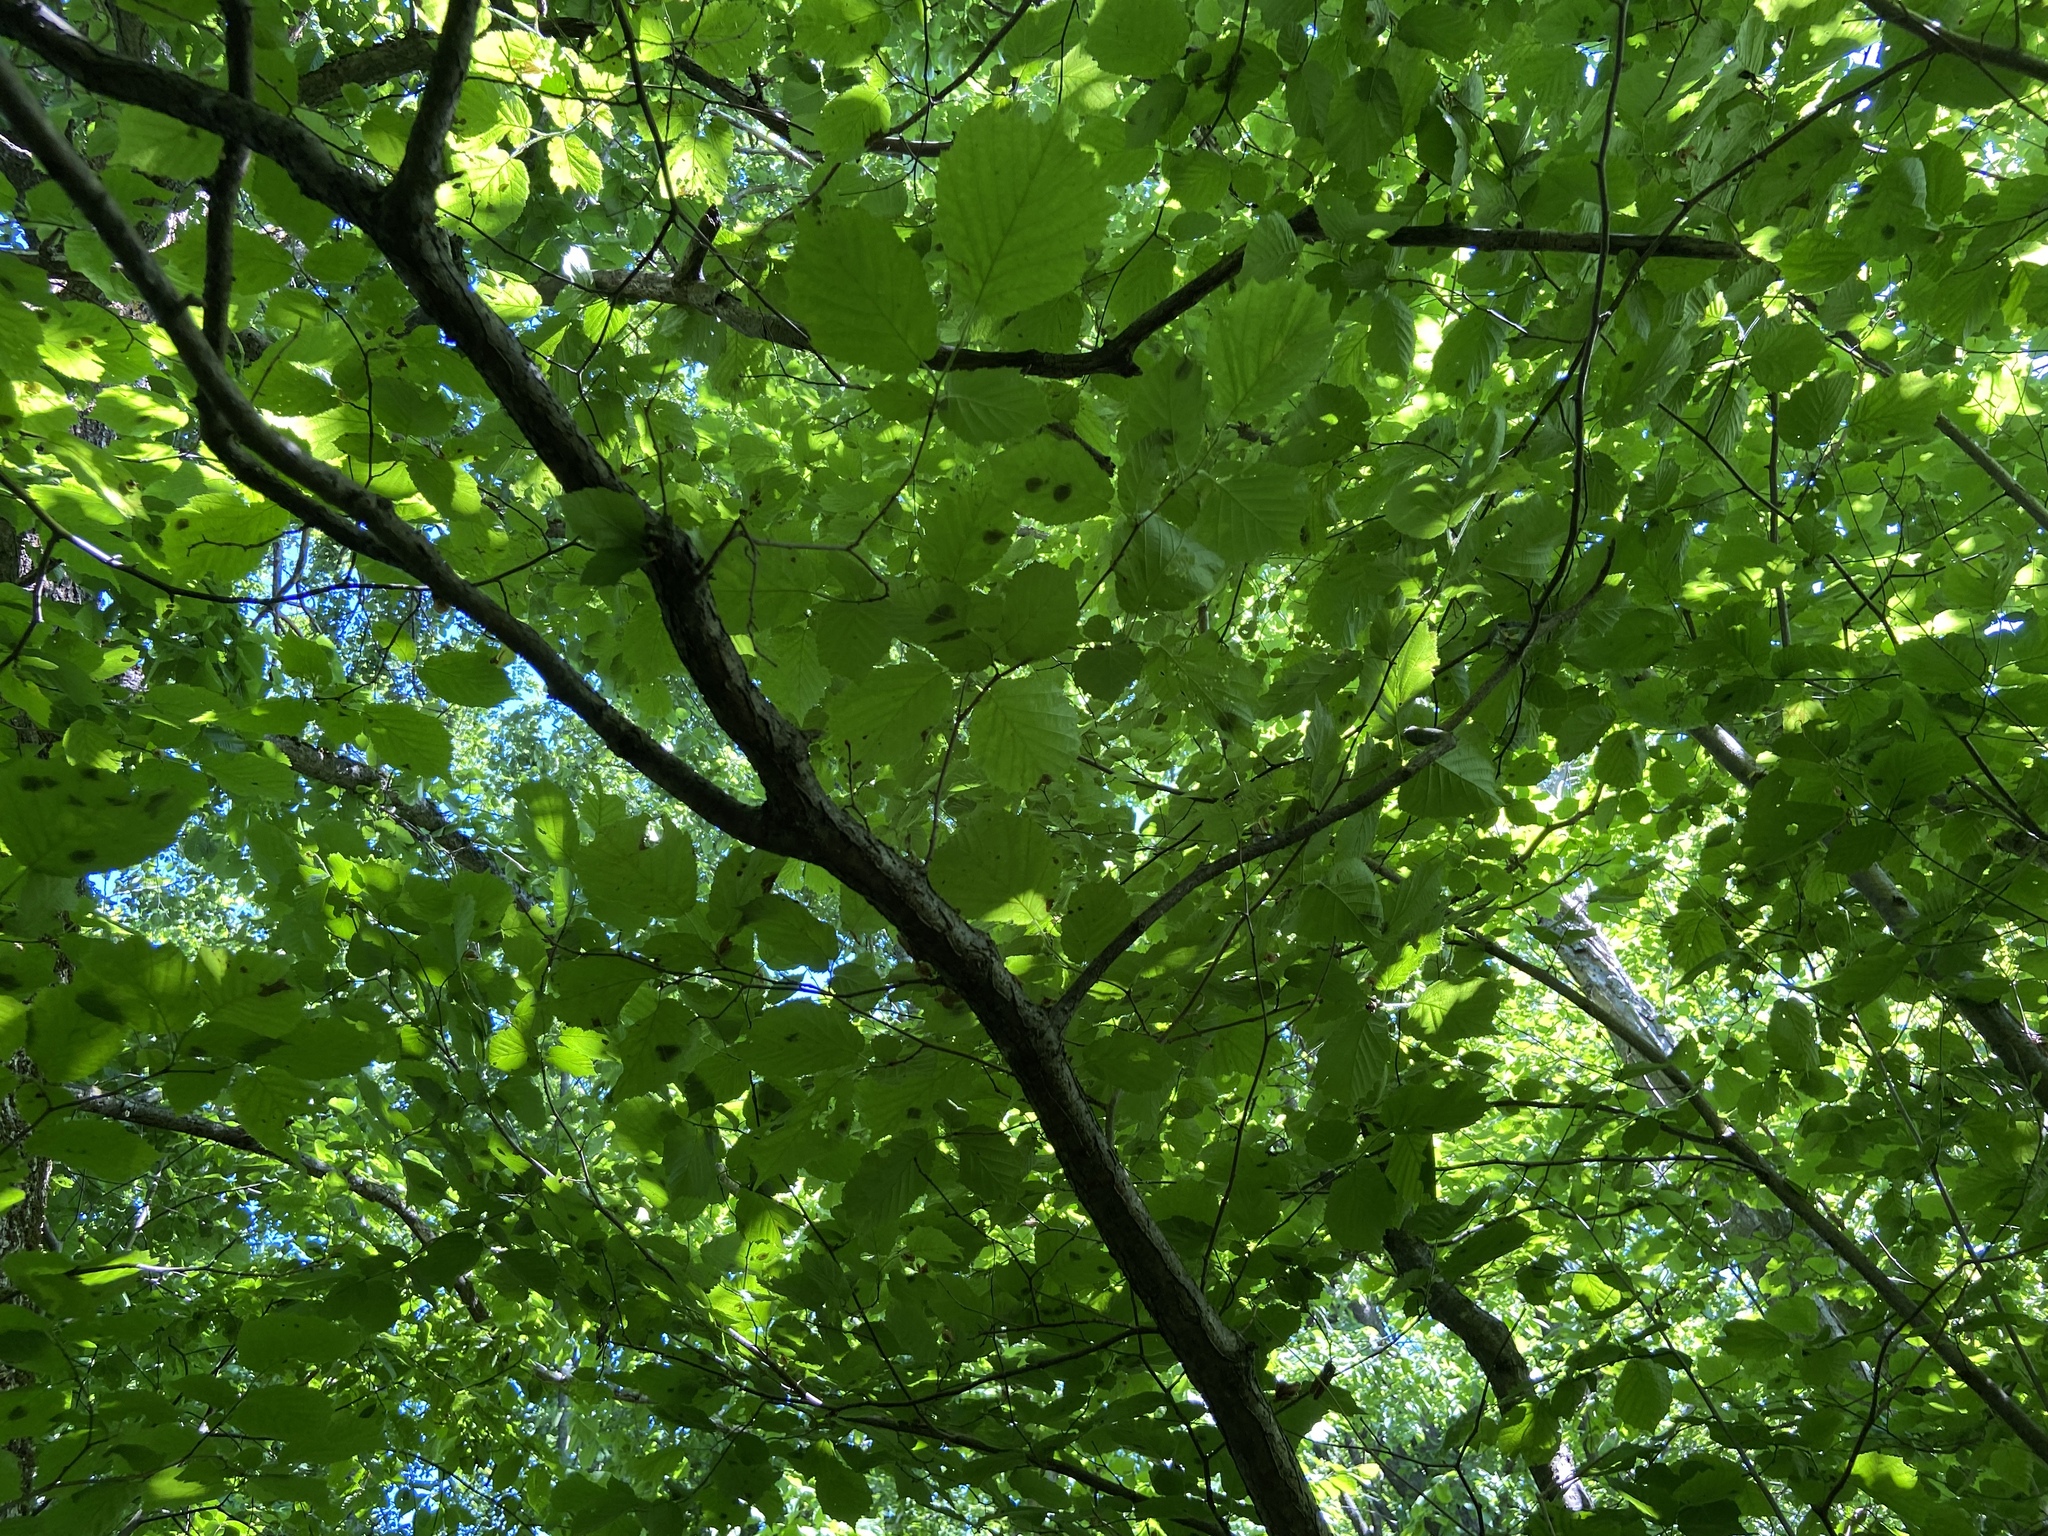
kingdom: Plantae
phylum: Tracheophyta
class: Magnoliopsida
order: Fagales
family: Betulaceae
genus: Corylus
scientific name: Corylus avellana
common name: European hazel
